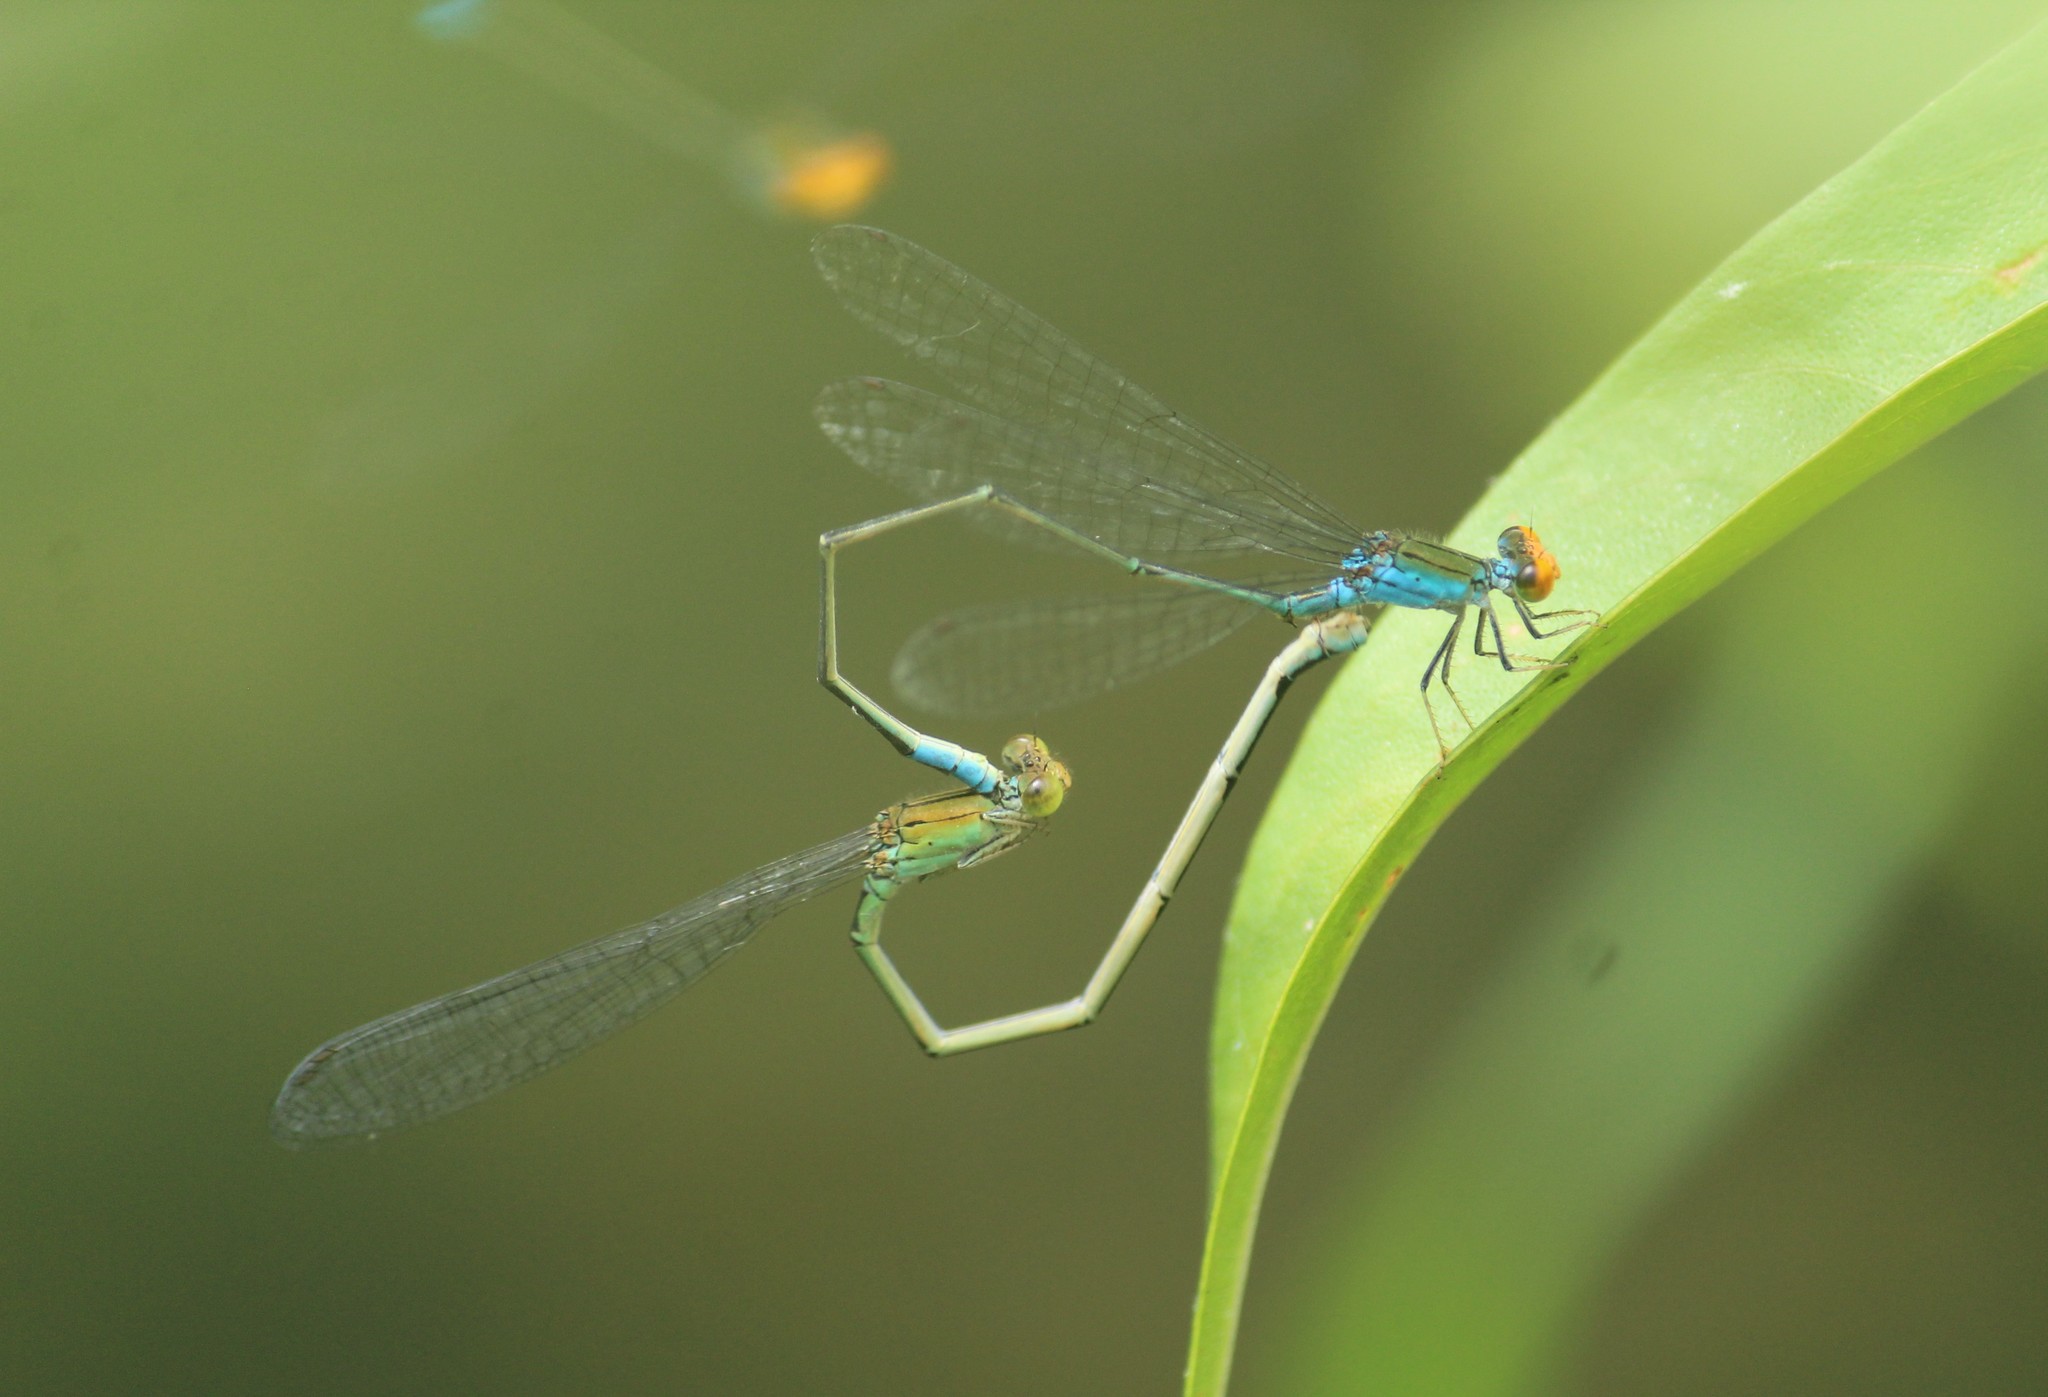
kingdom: Animalia
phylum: Arthropoda
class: Insecta
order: Odonata
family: Coenagrionidae
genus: Pseudagrion
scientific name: Pseudagrion rubriceps
